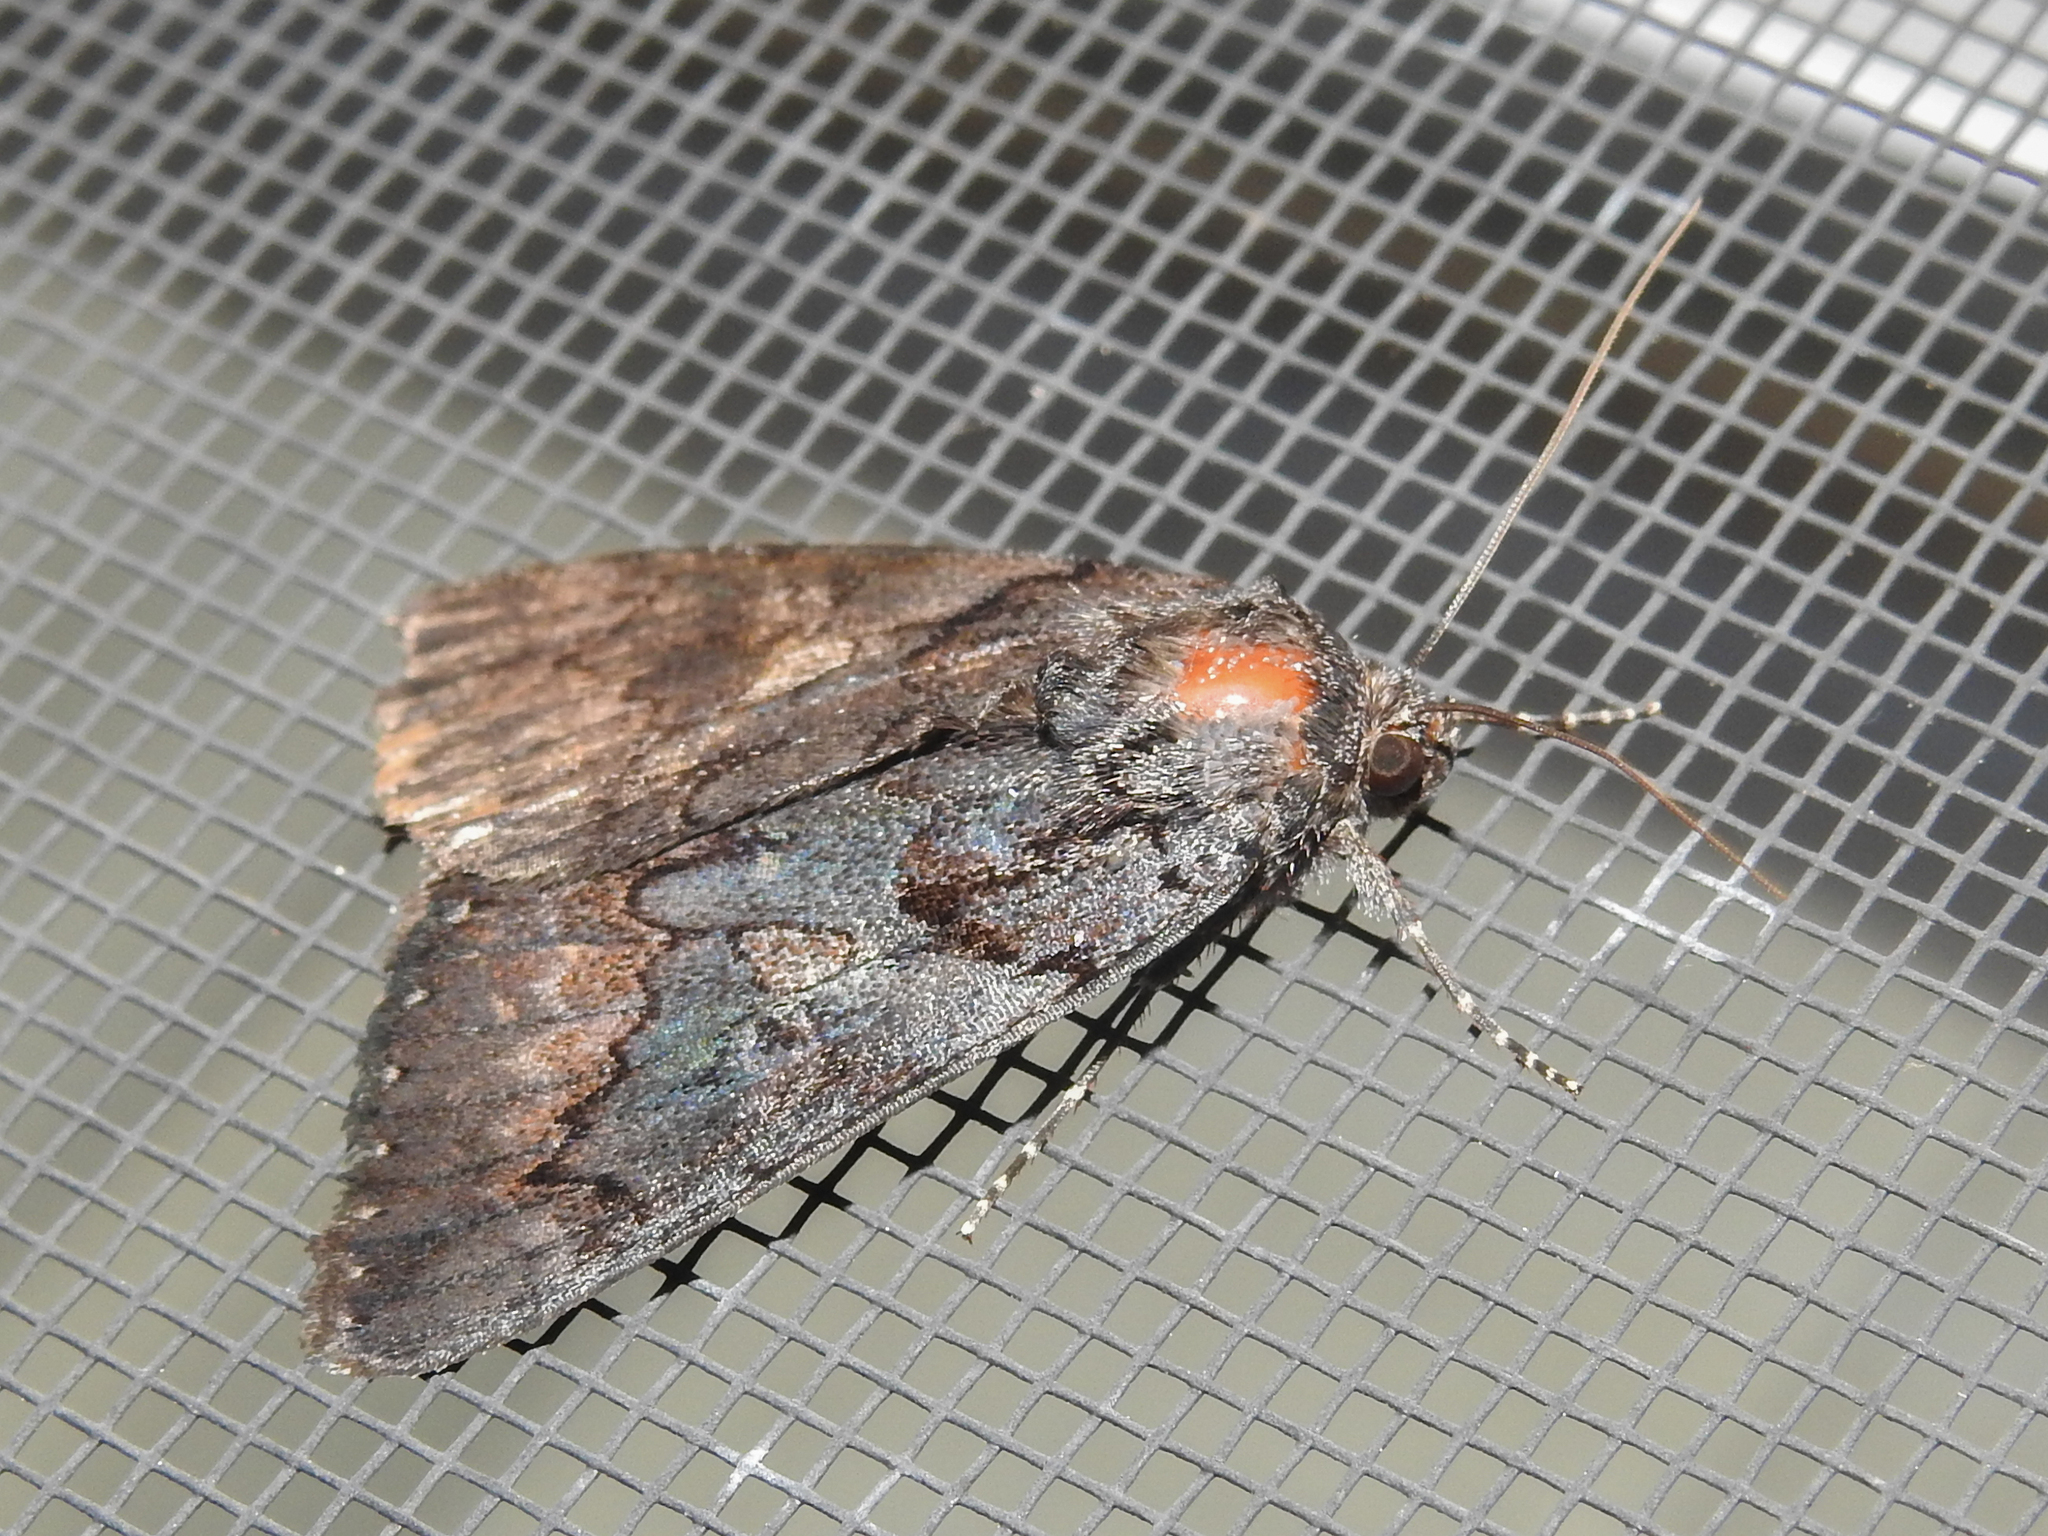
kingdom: Animalia
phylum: Arthropoda
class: Insecta
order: Lepidoptera
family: Erebidae
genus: Catocala
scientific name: Catocala antinympha
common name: Sweetfern underwing
